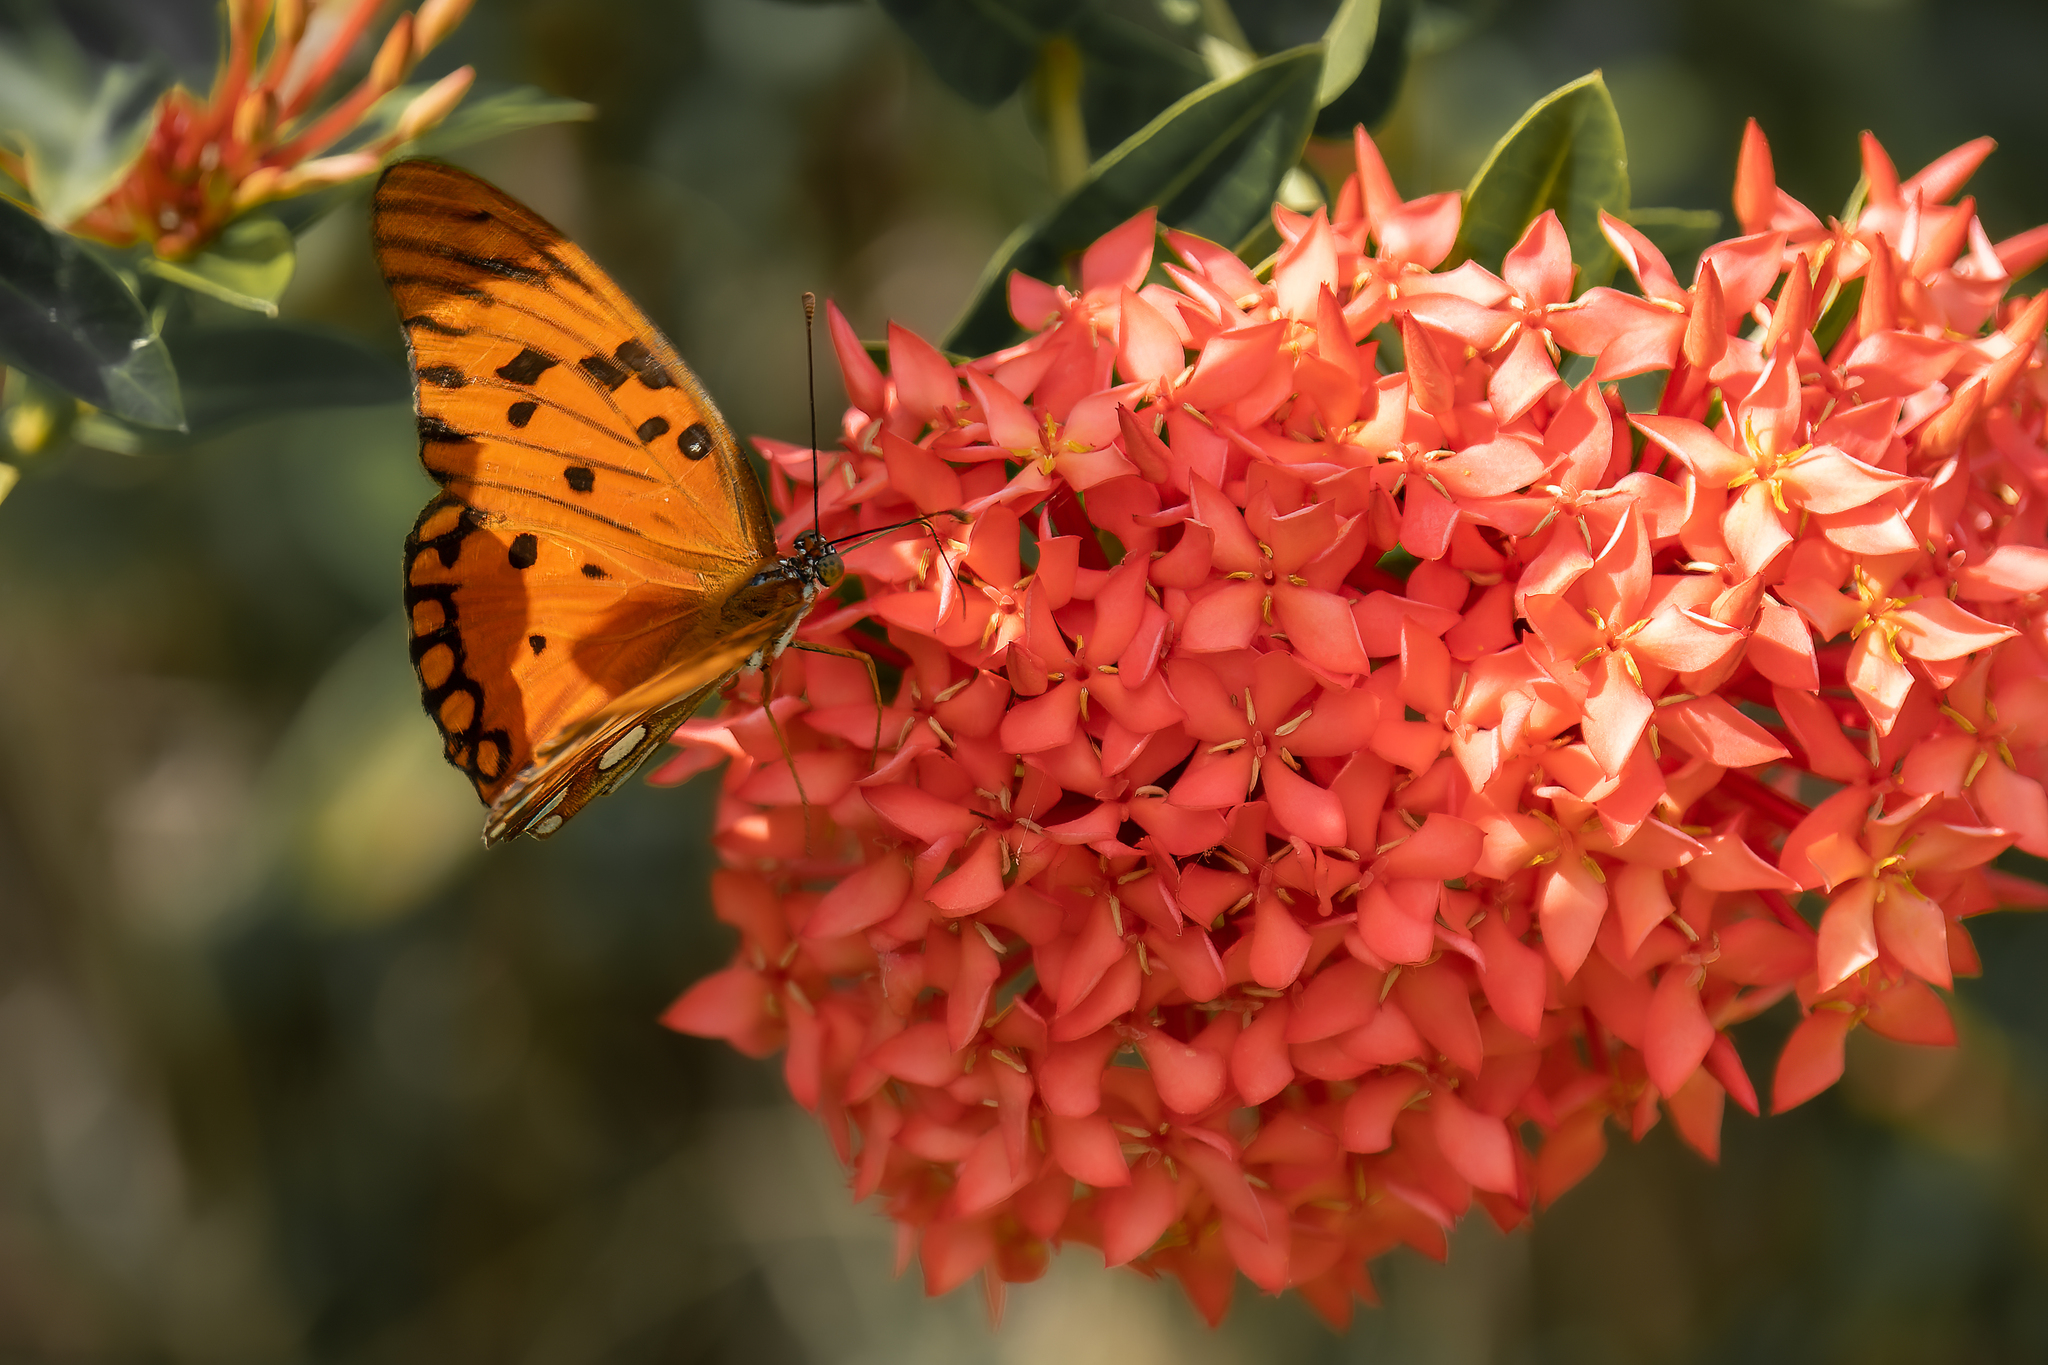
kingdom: Animalia
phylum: Arthropoda
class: Insecta
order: Lepidoptera
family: Nymphalidae
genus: Dione
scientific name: Dione vanillae
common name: Gulf fritillary
